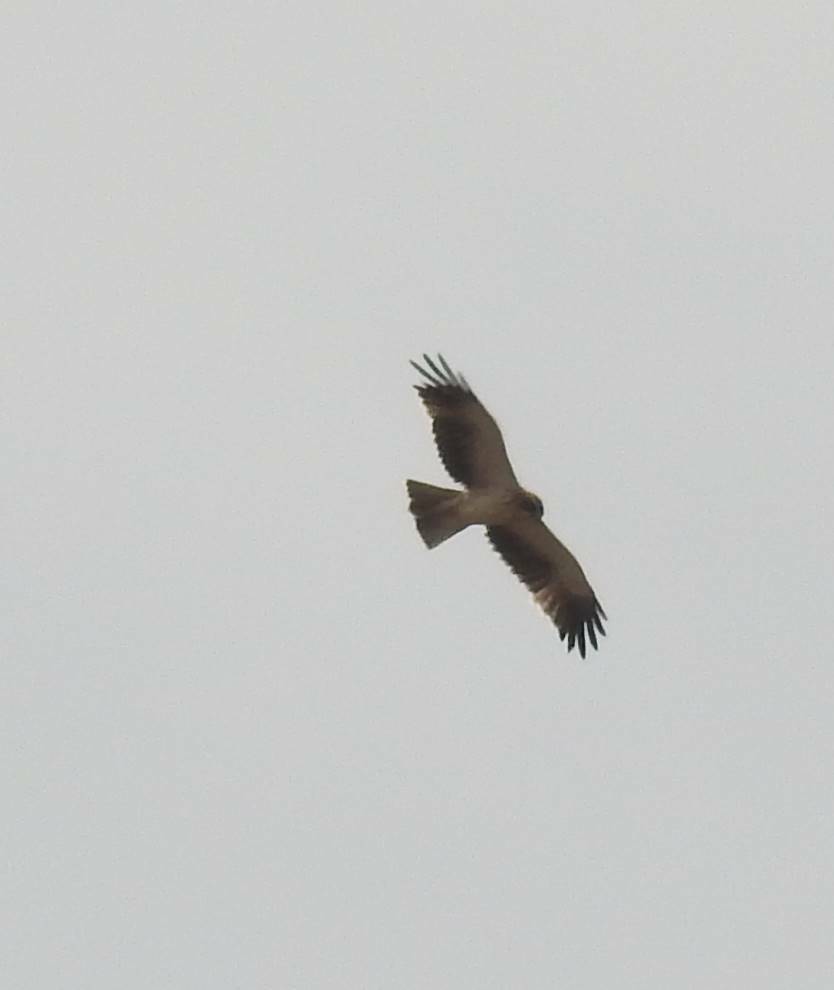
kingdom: Animalia
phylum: Chordata
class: Aves
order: Accipitriformes
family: Accipitridae
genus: Hieraaetus
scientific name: Hieraaetus pennatus
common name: Booted eagle
